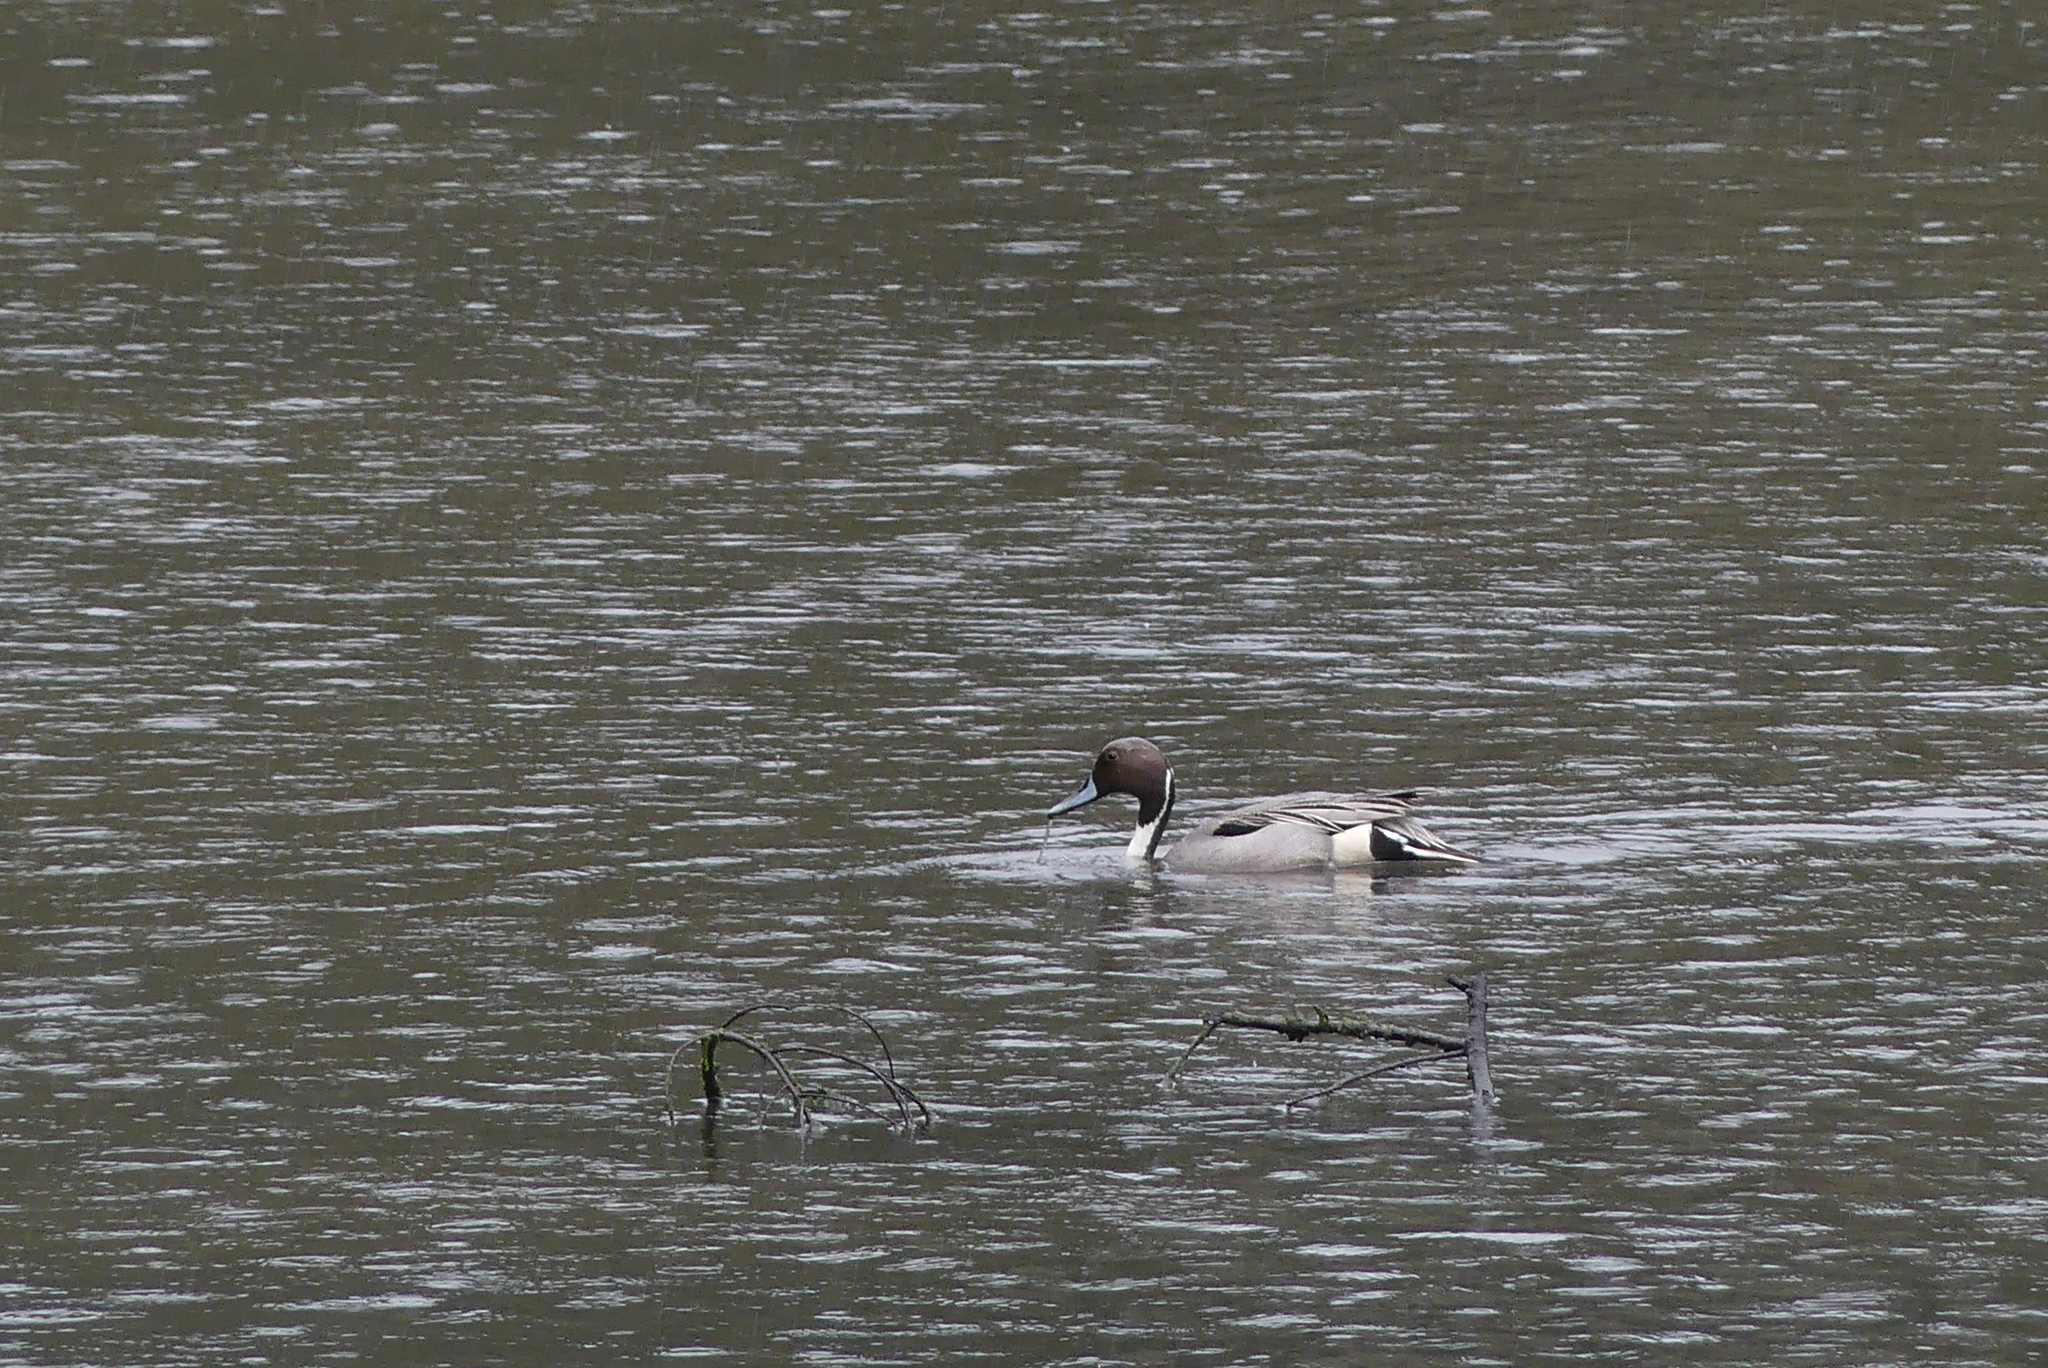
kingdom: Animalia
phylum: Chordata
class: Aves
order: Anseriformes
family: Anatidae
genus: Anas
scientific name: Anas acuta
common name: Northern pintail
